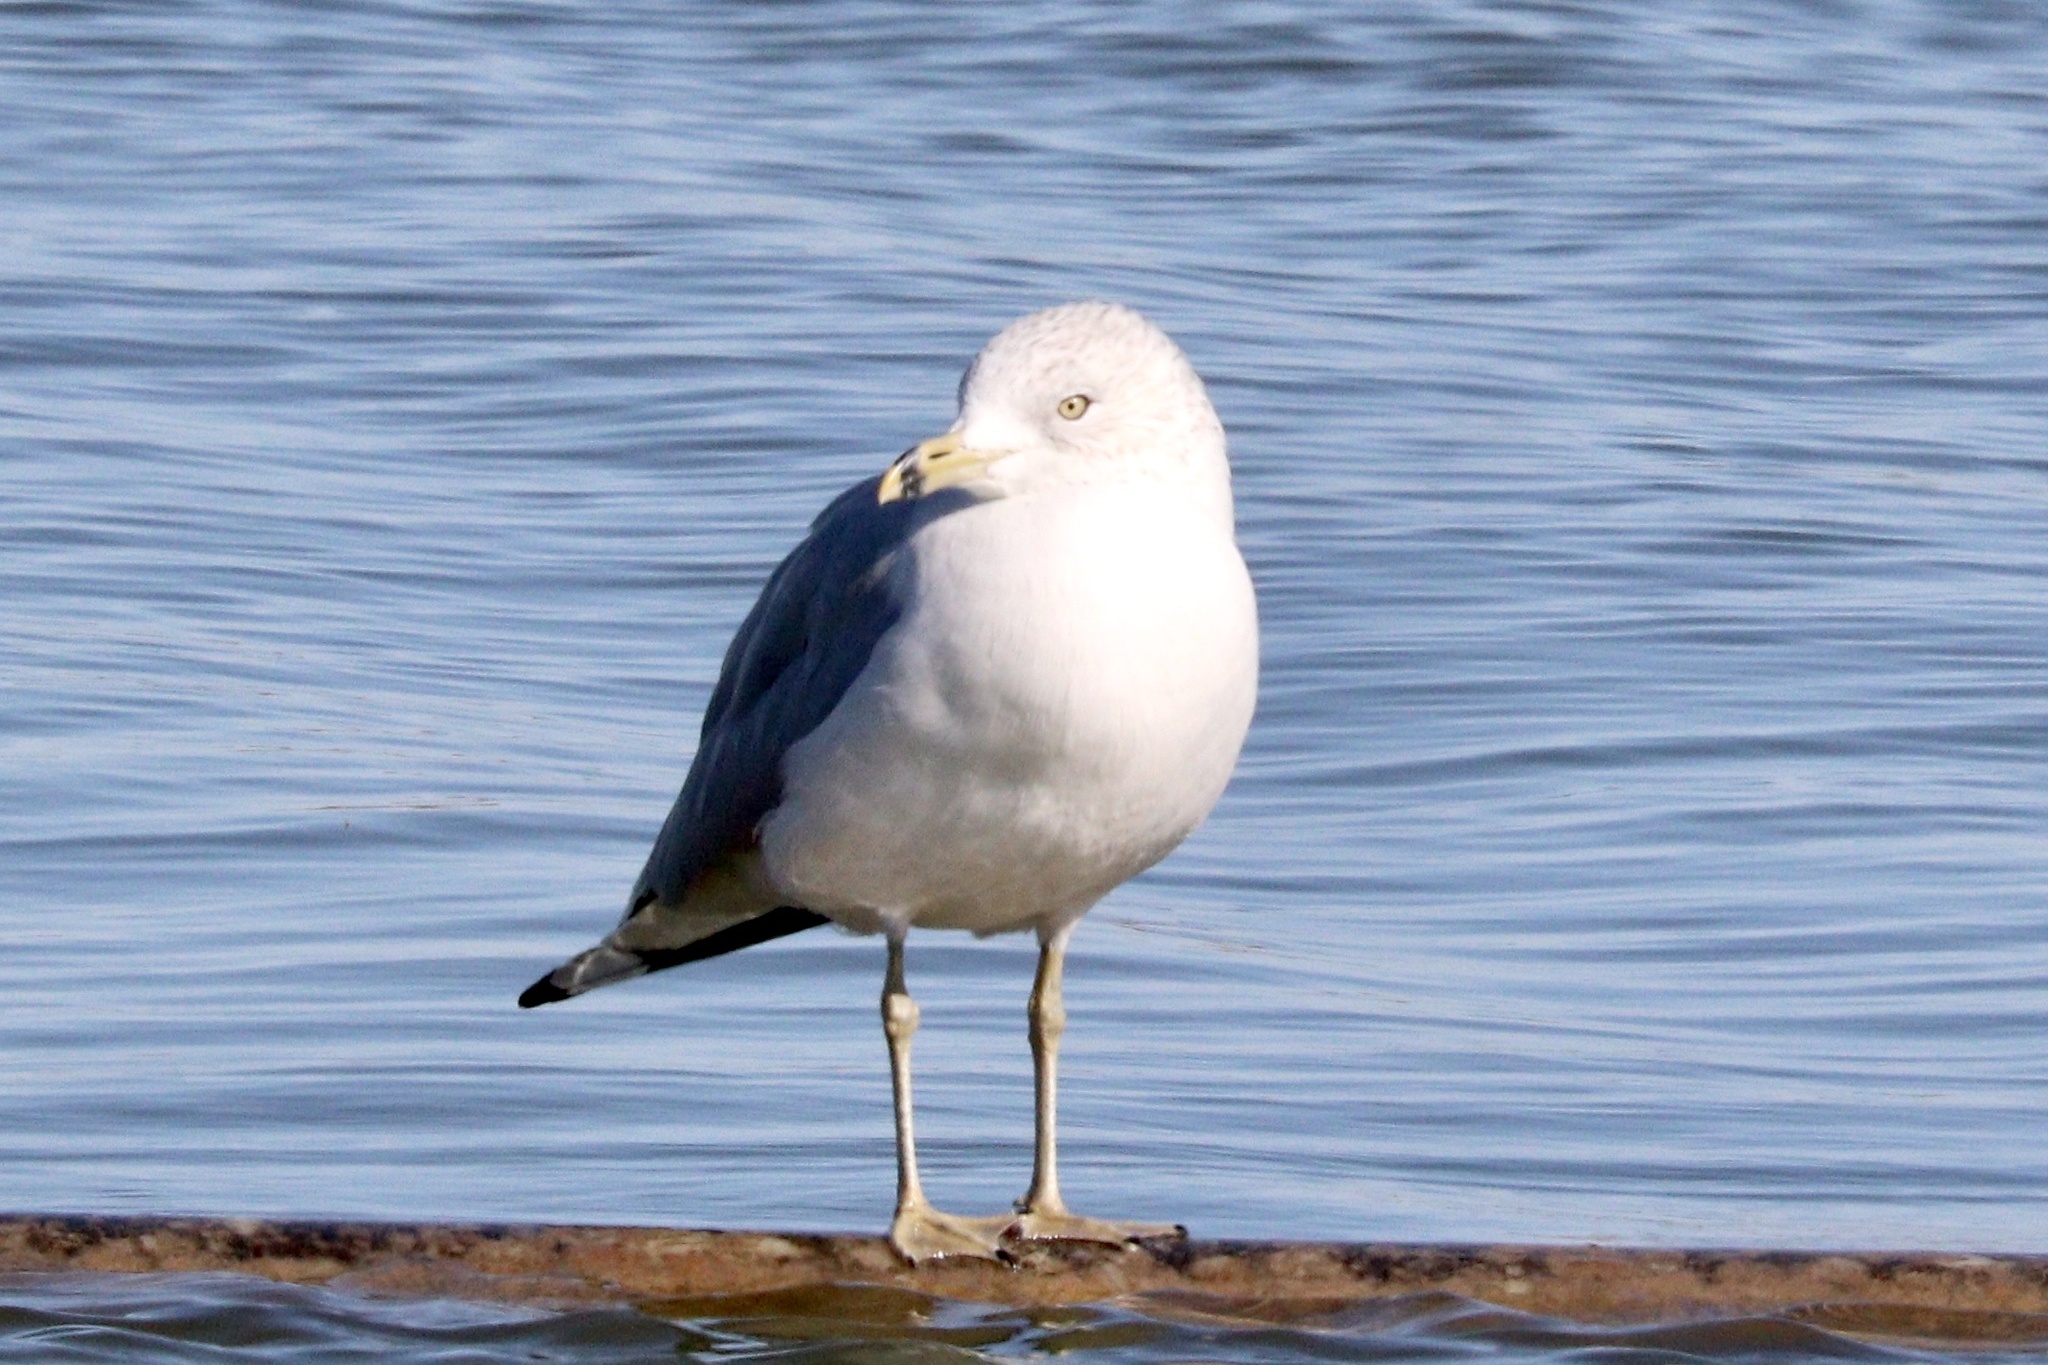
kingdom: Animalia
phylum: Chordata
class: Aves
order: Charadriiformes
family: Laridae
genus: Larus
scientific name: Larus delawarensis
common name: Ring-billed gull
